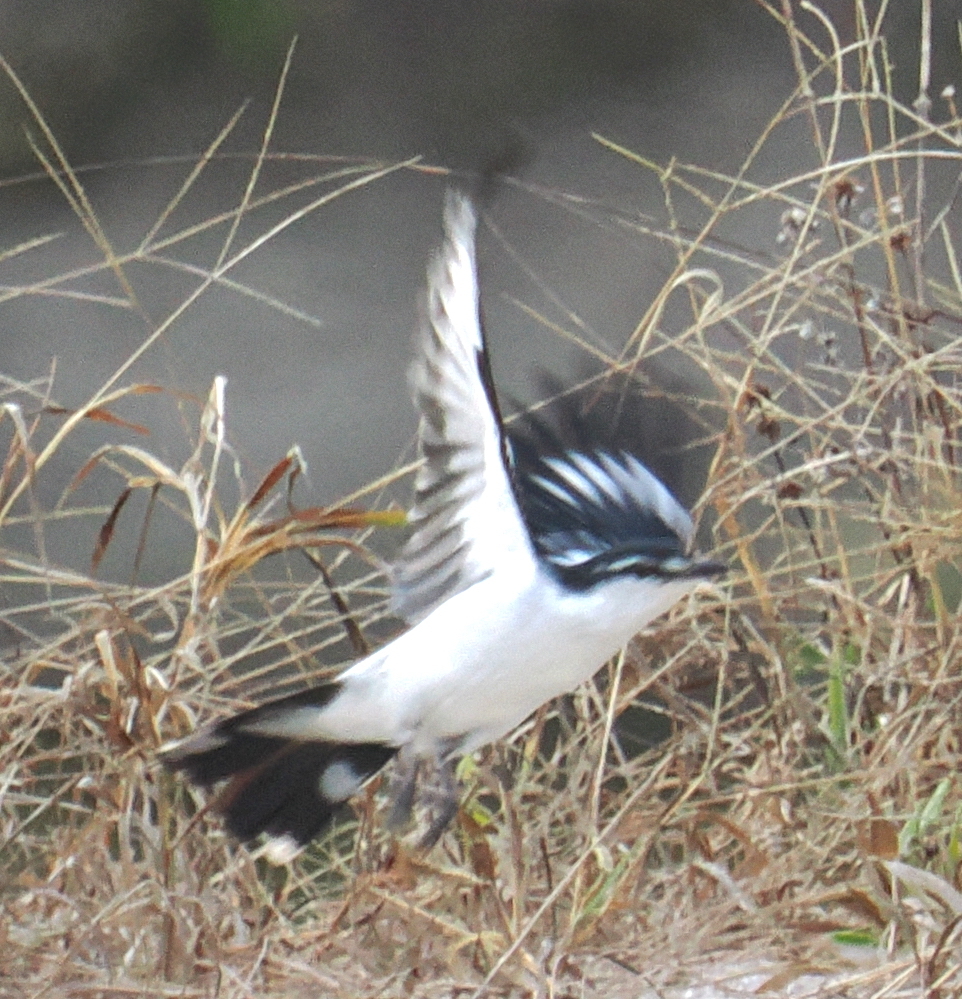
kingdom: Animalia
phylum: Chordata
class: Aves
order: Passeriformes
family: Campephagidae
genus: Lalage
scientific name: Lalage sueurii
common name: White-shouldered triller
